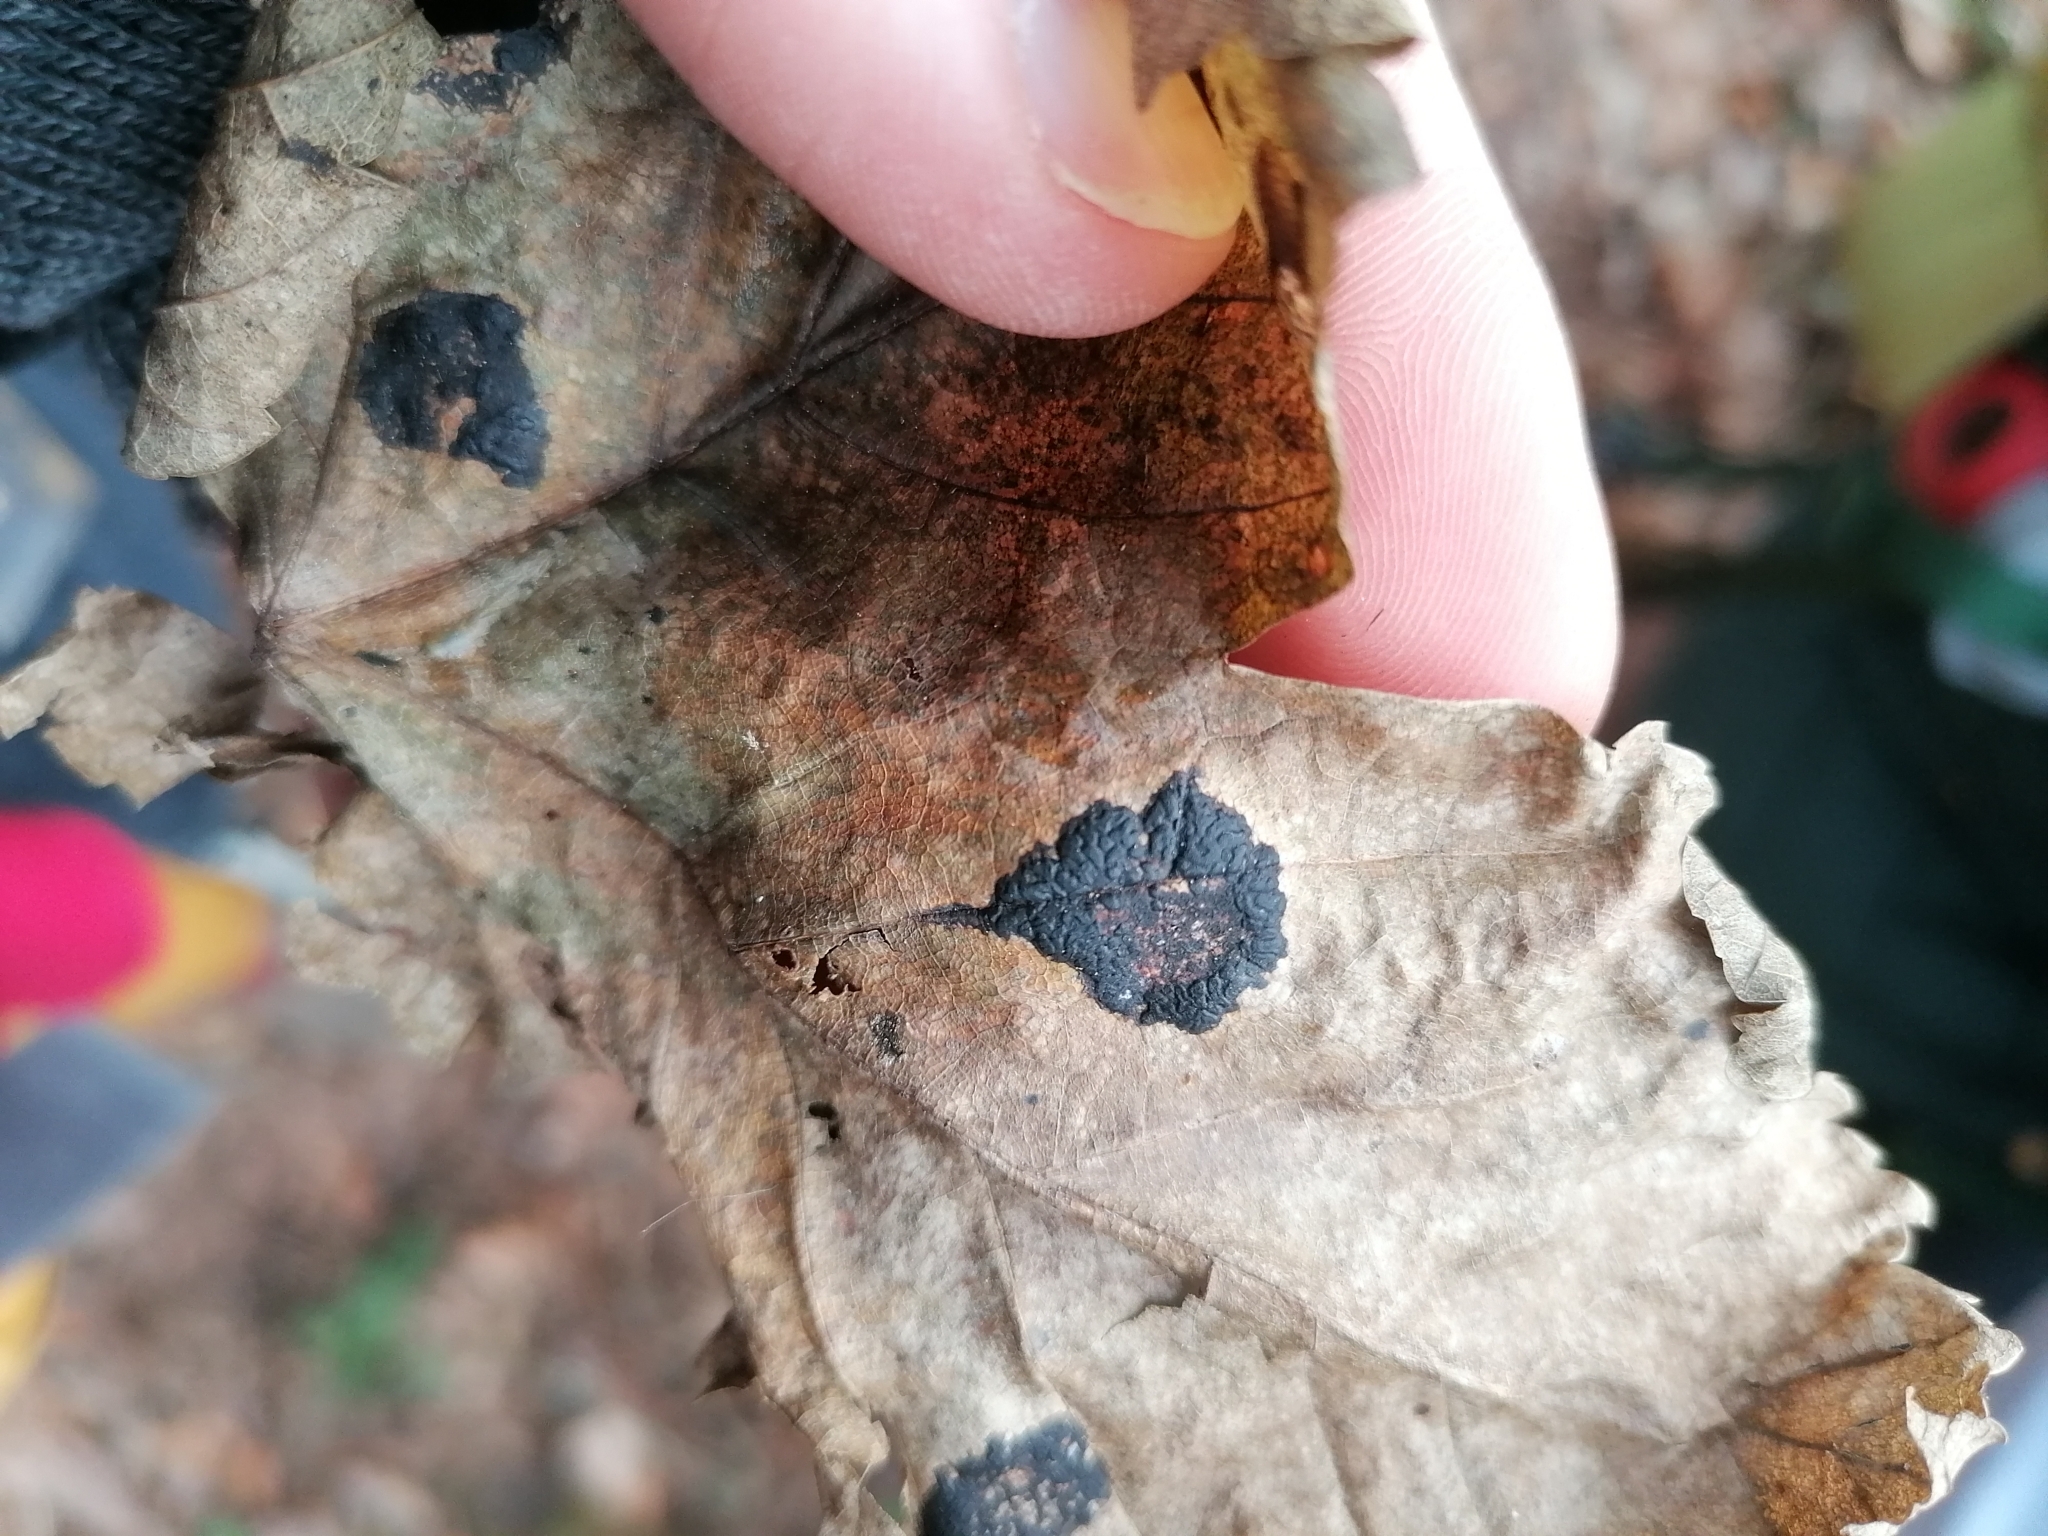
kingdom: Fungi
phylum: Ascomycota
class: Leotiomycetes
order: Rhytismatales
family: Rhytismataceae
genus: Rhytisma
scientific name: Rhytisma acerinum
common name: European tar spot
